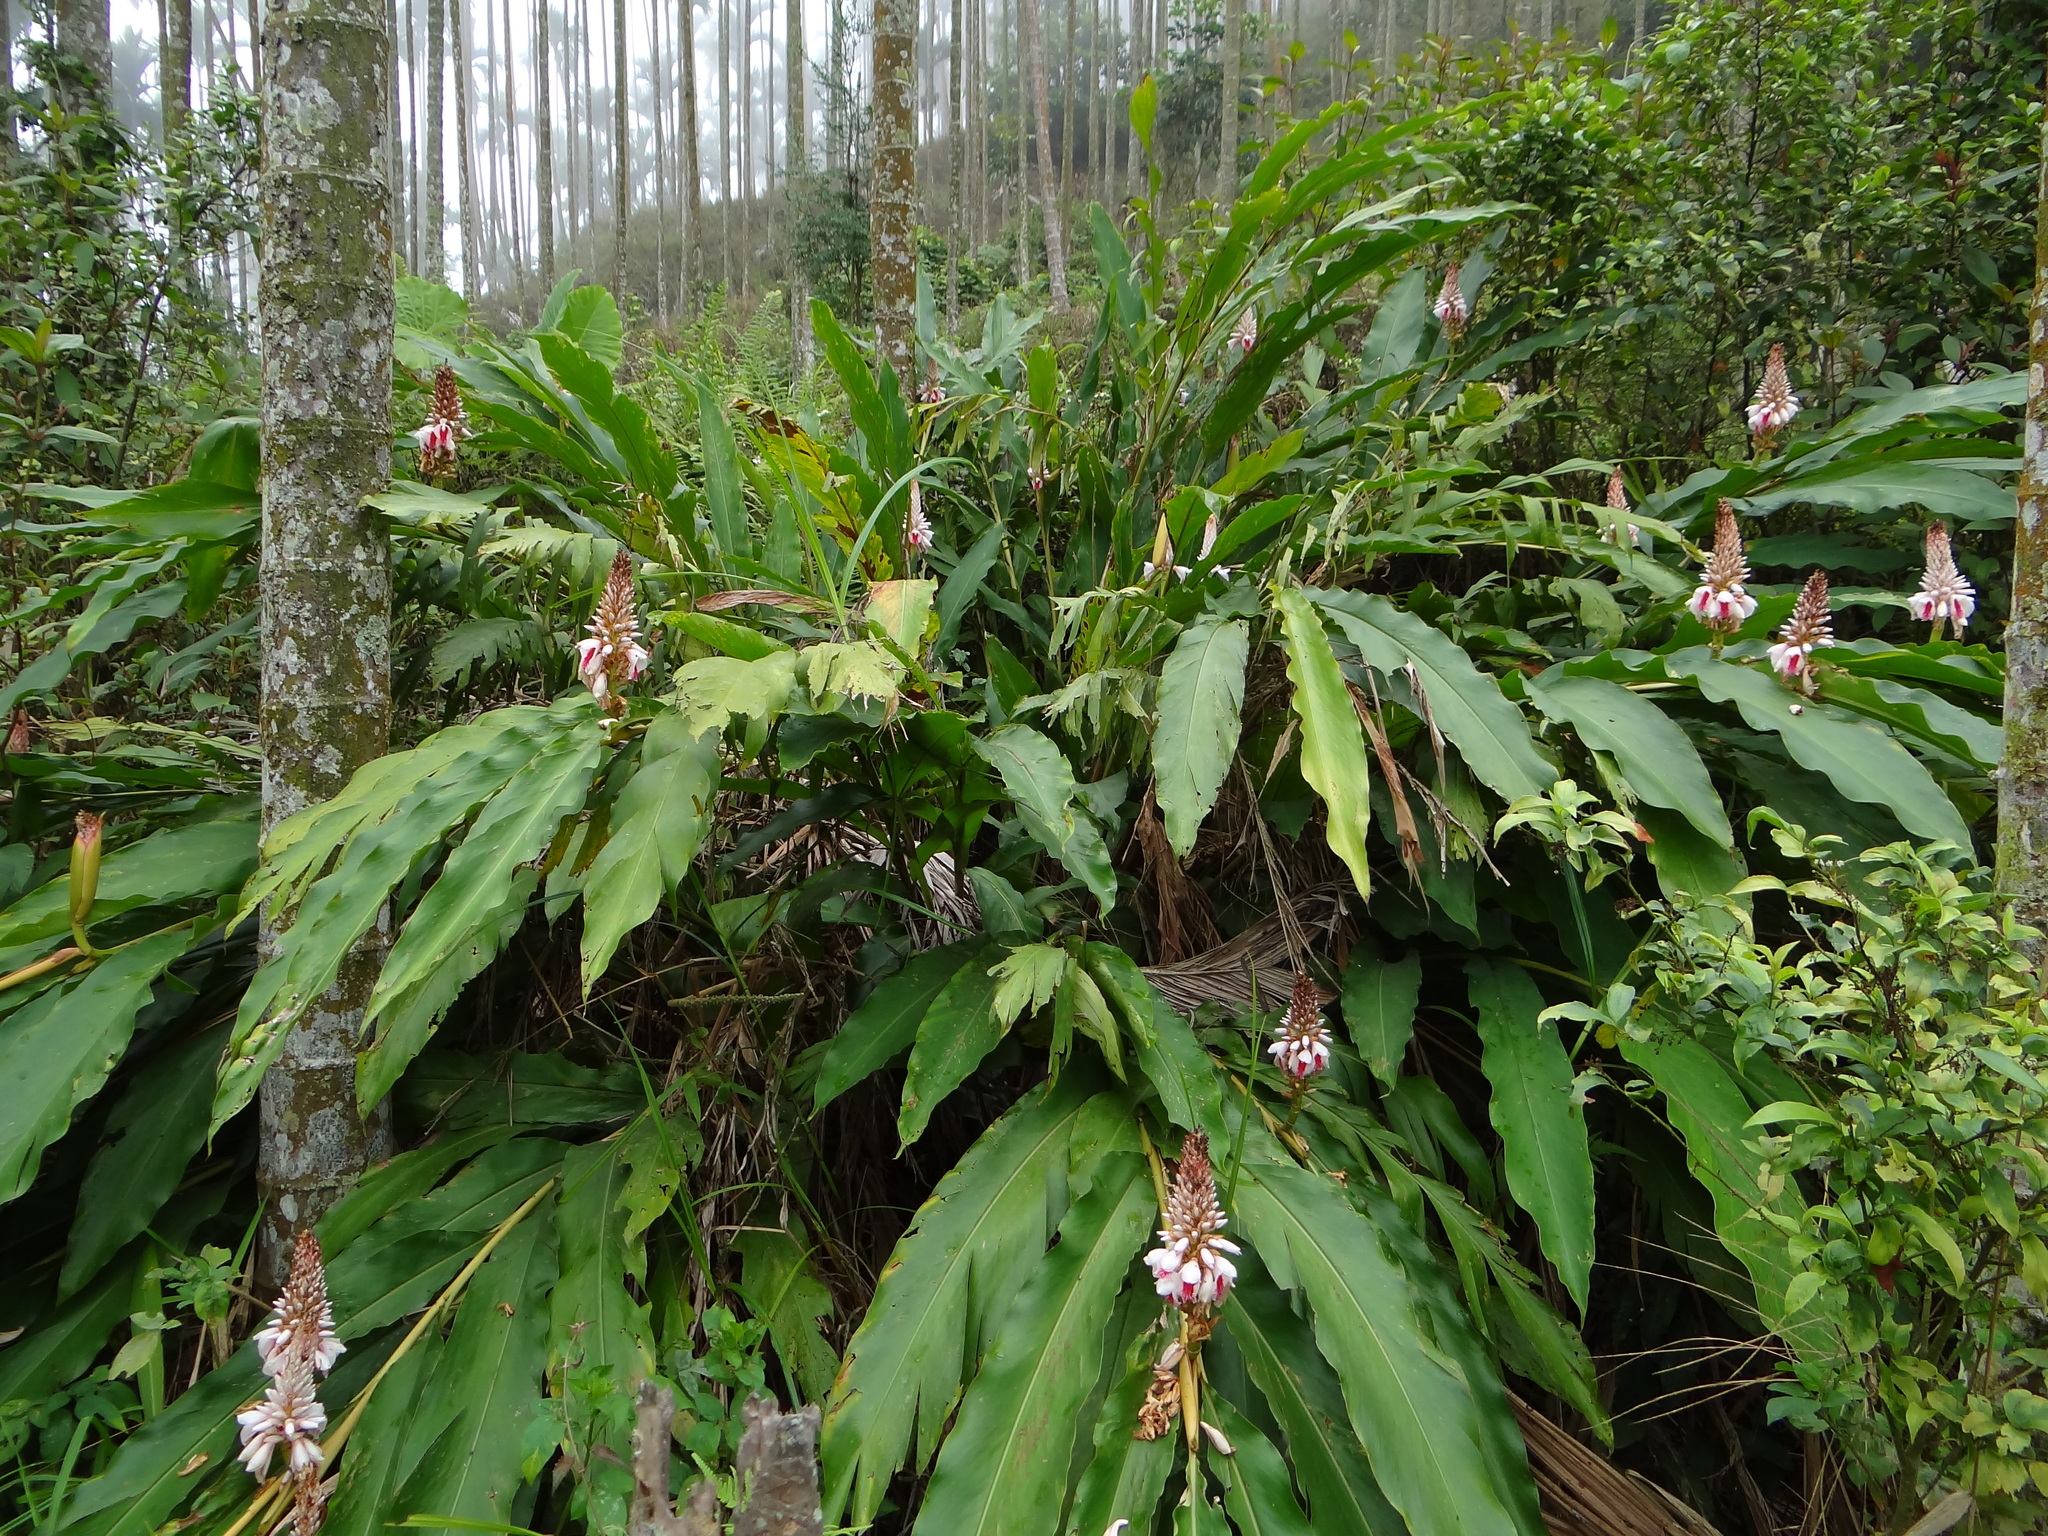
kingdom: Plantae
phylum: Tracheophyta
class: Liliopsida
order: Zingiberales
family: Zingiberaceae
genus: Alpinia
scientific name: Alpinia sessiliflora
